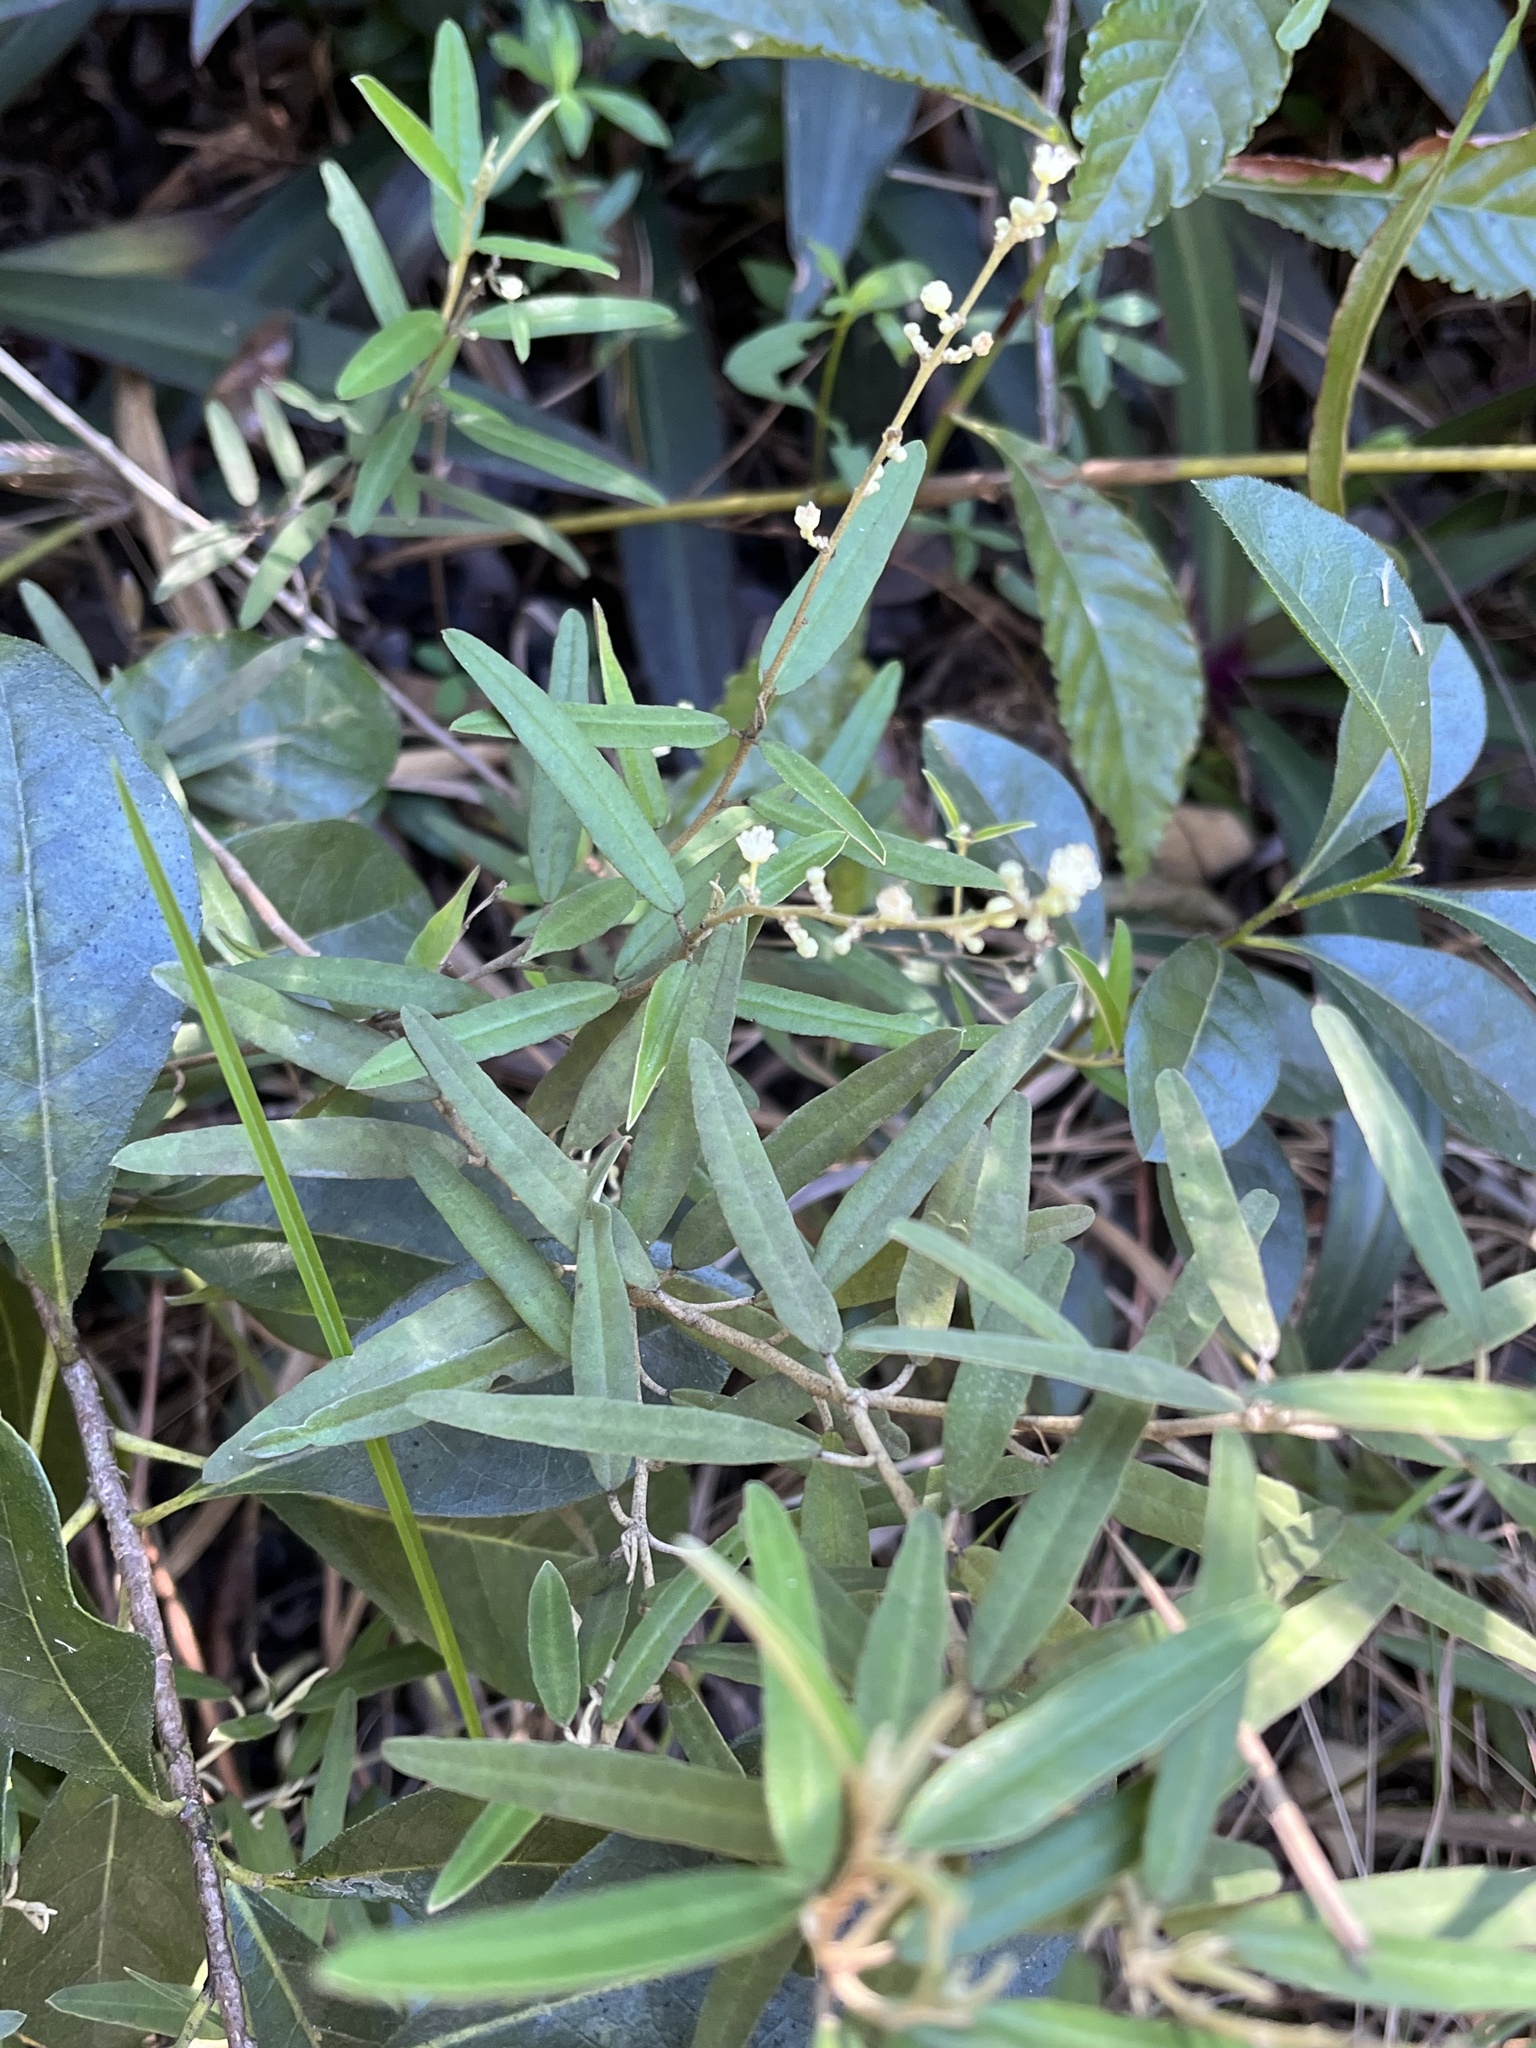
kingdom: Plantae
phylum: Tracheophyta
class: Magnoliopsida
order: Malpighiales
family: Euphorbiaceae
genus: Croton
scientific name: Croton linearis
